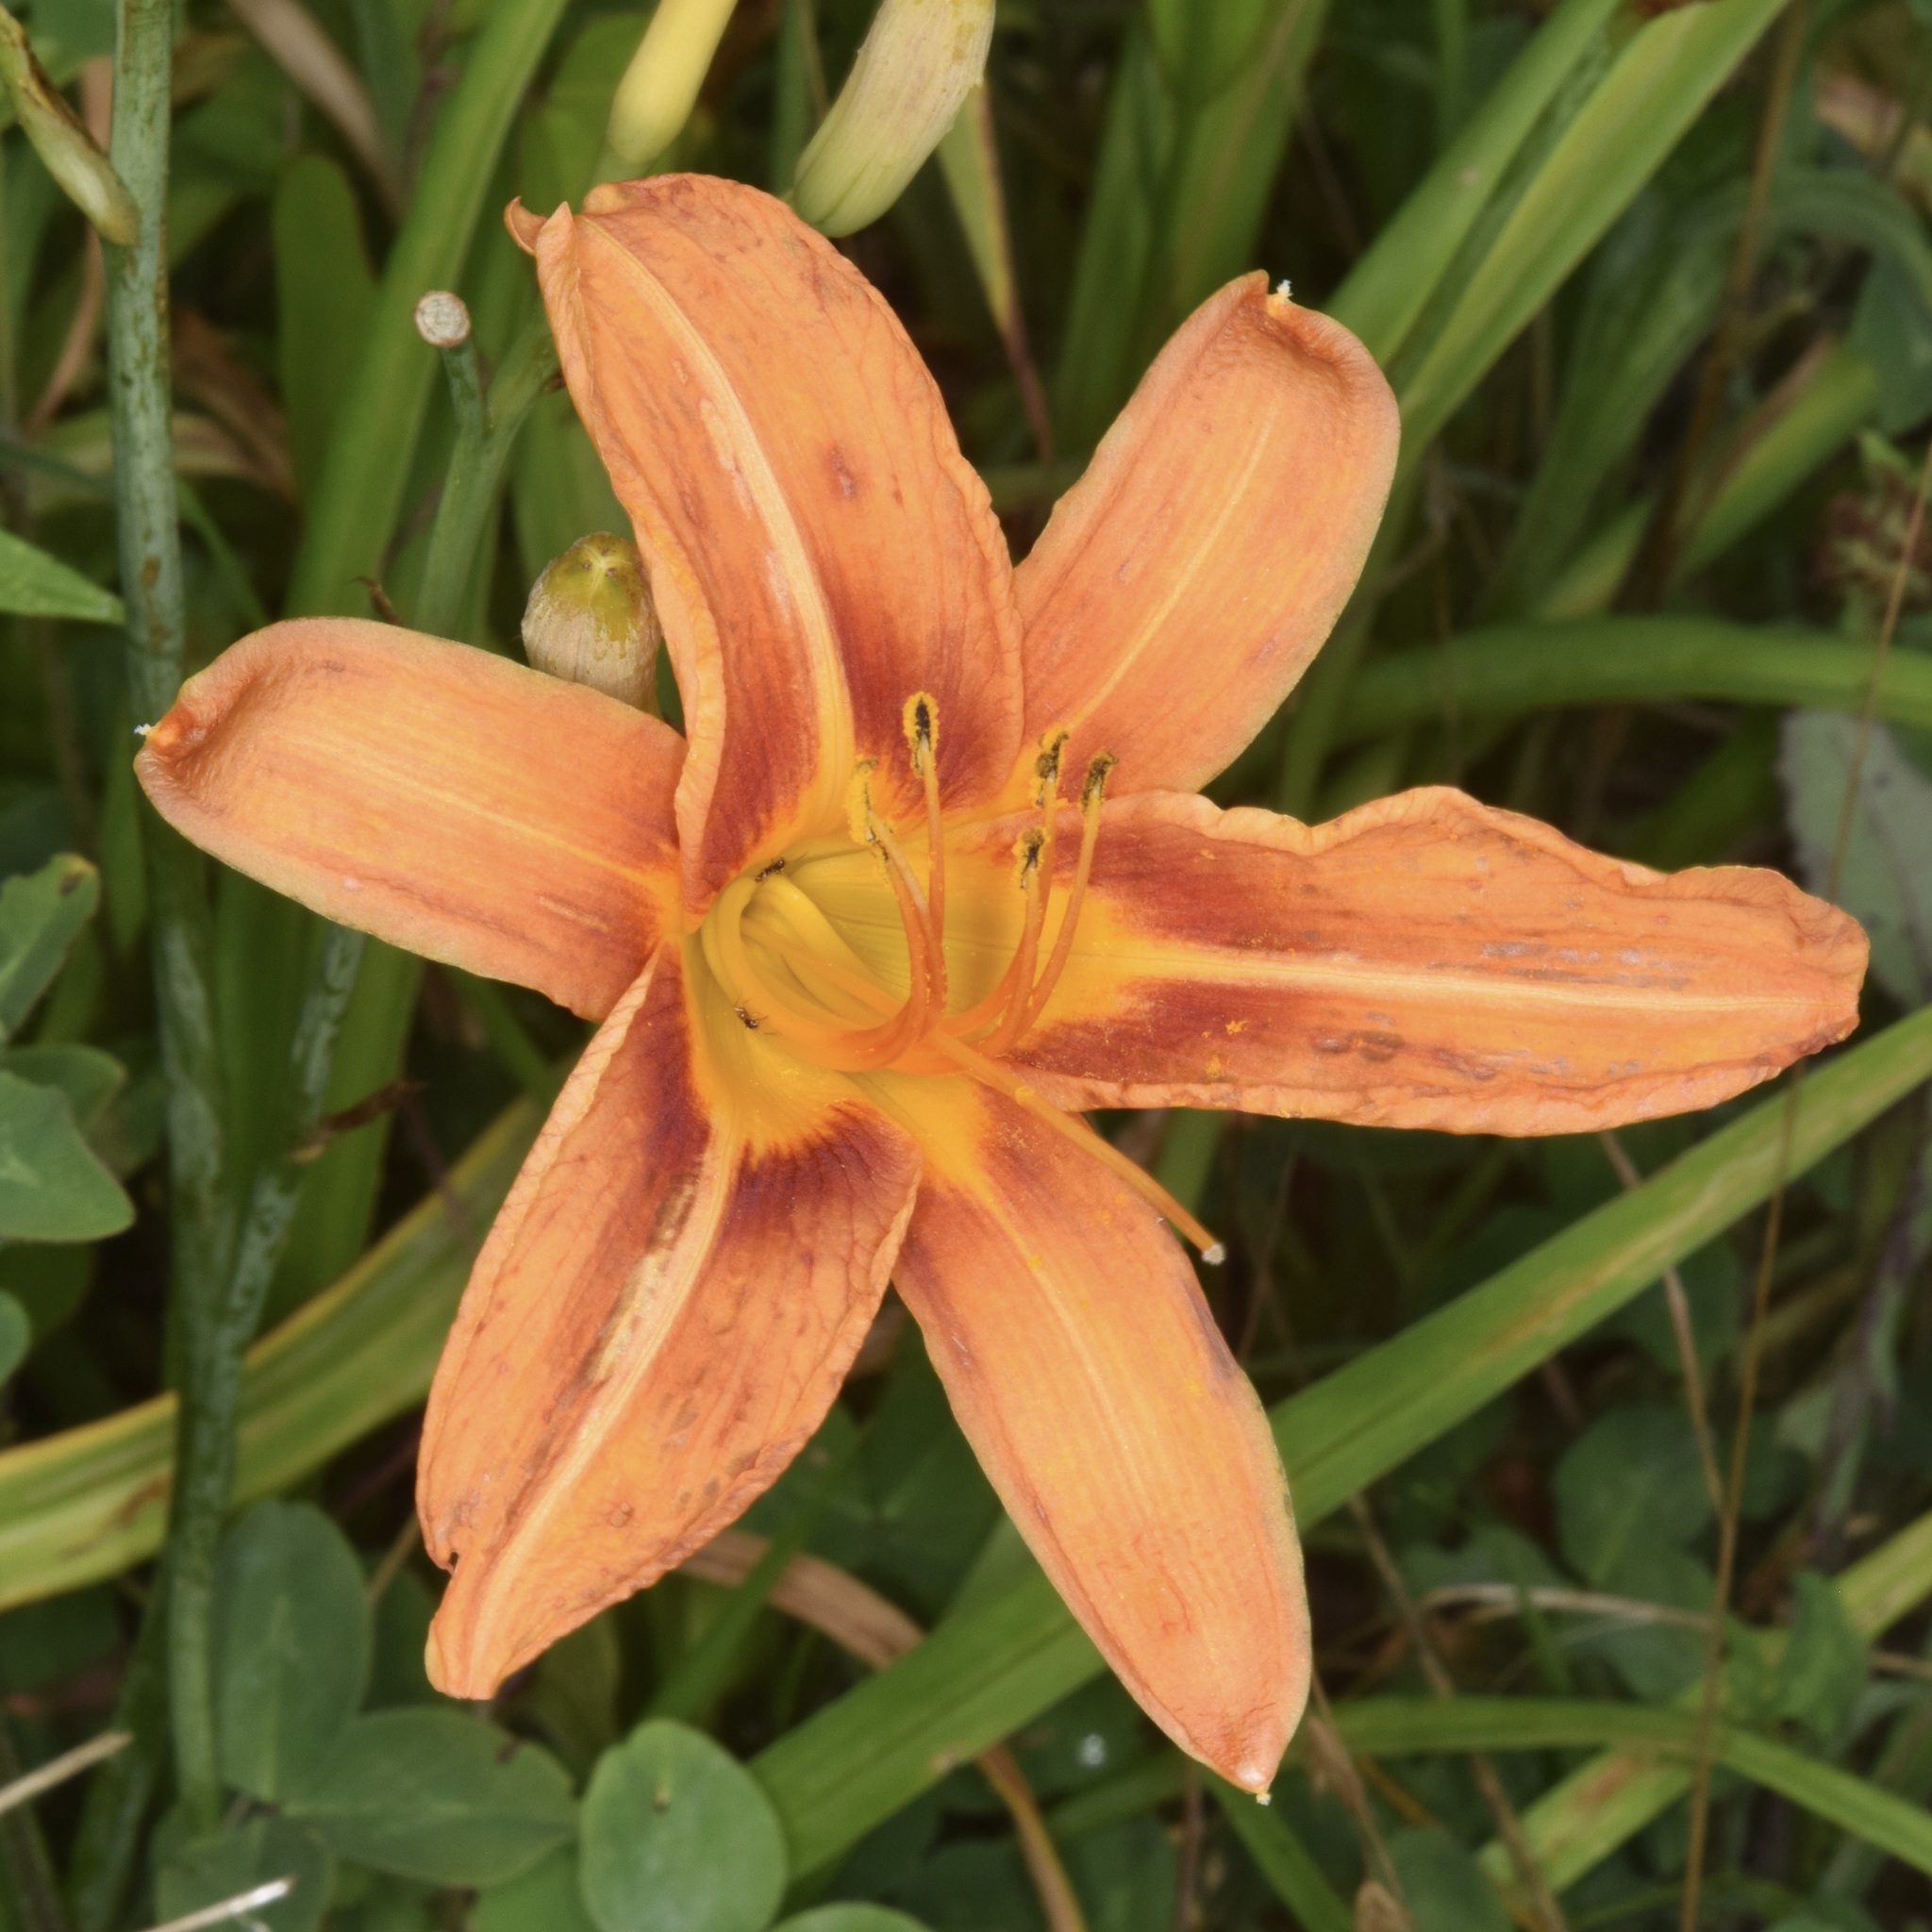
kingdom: Plantae
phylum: Tracheophyta
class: Liliopsida
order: Asparagales
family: Asphodelaceae
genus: Hemerocallis
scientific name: Hemerocallis fulva
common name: Orange day-lily
